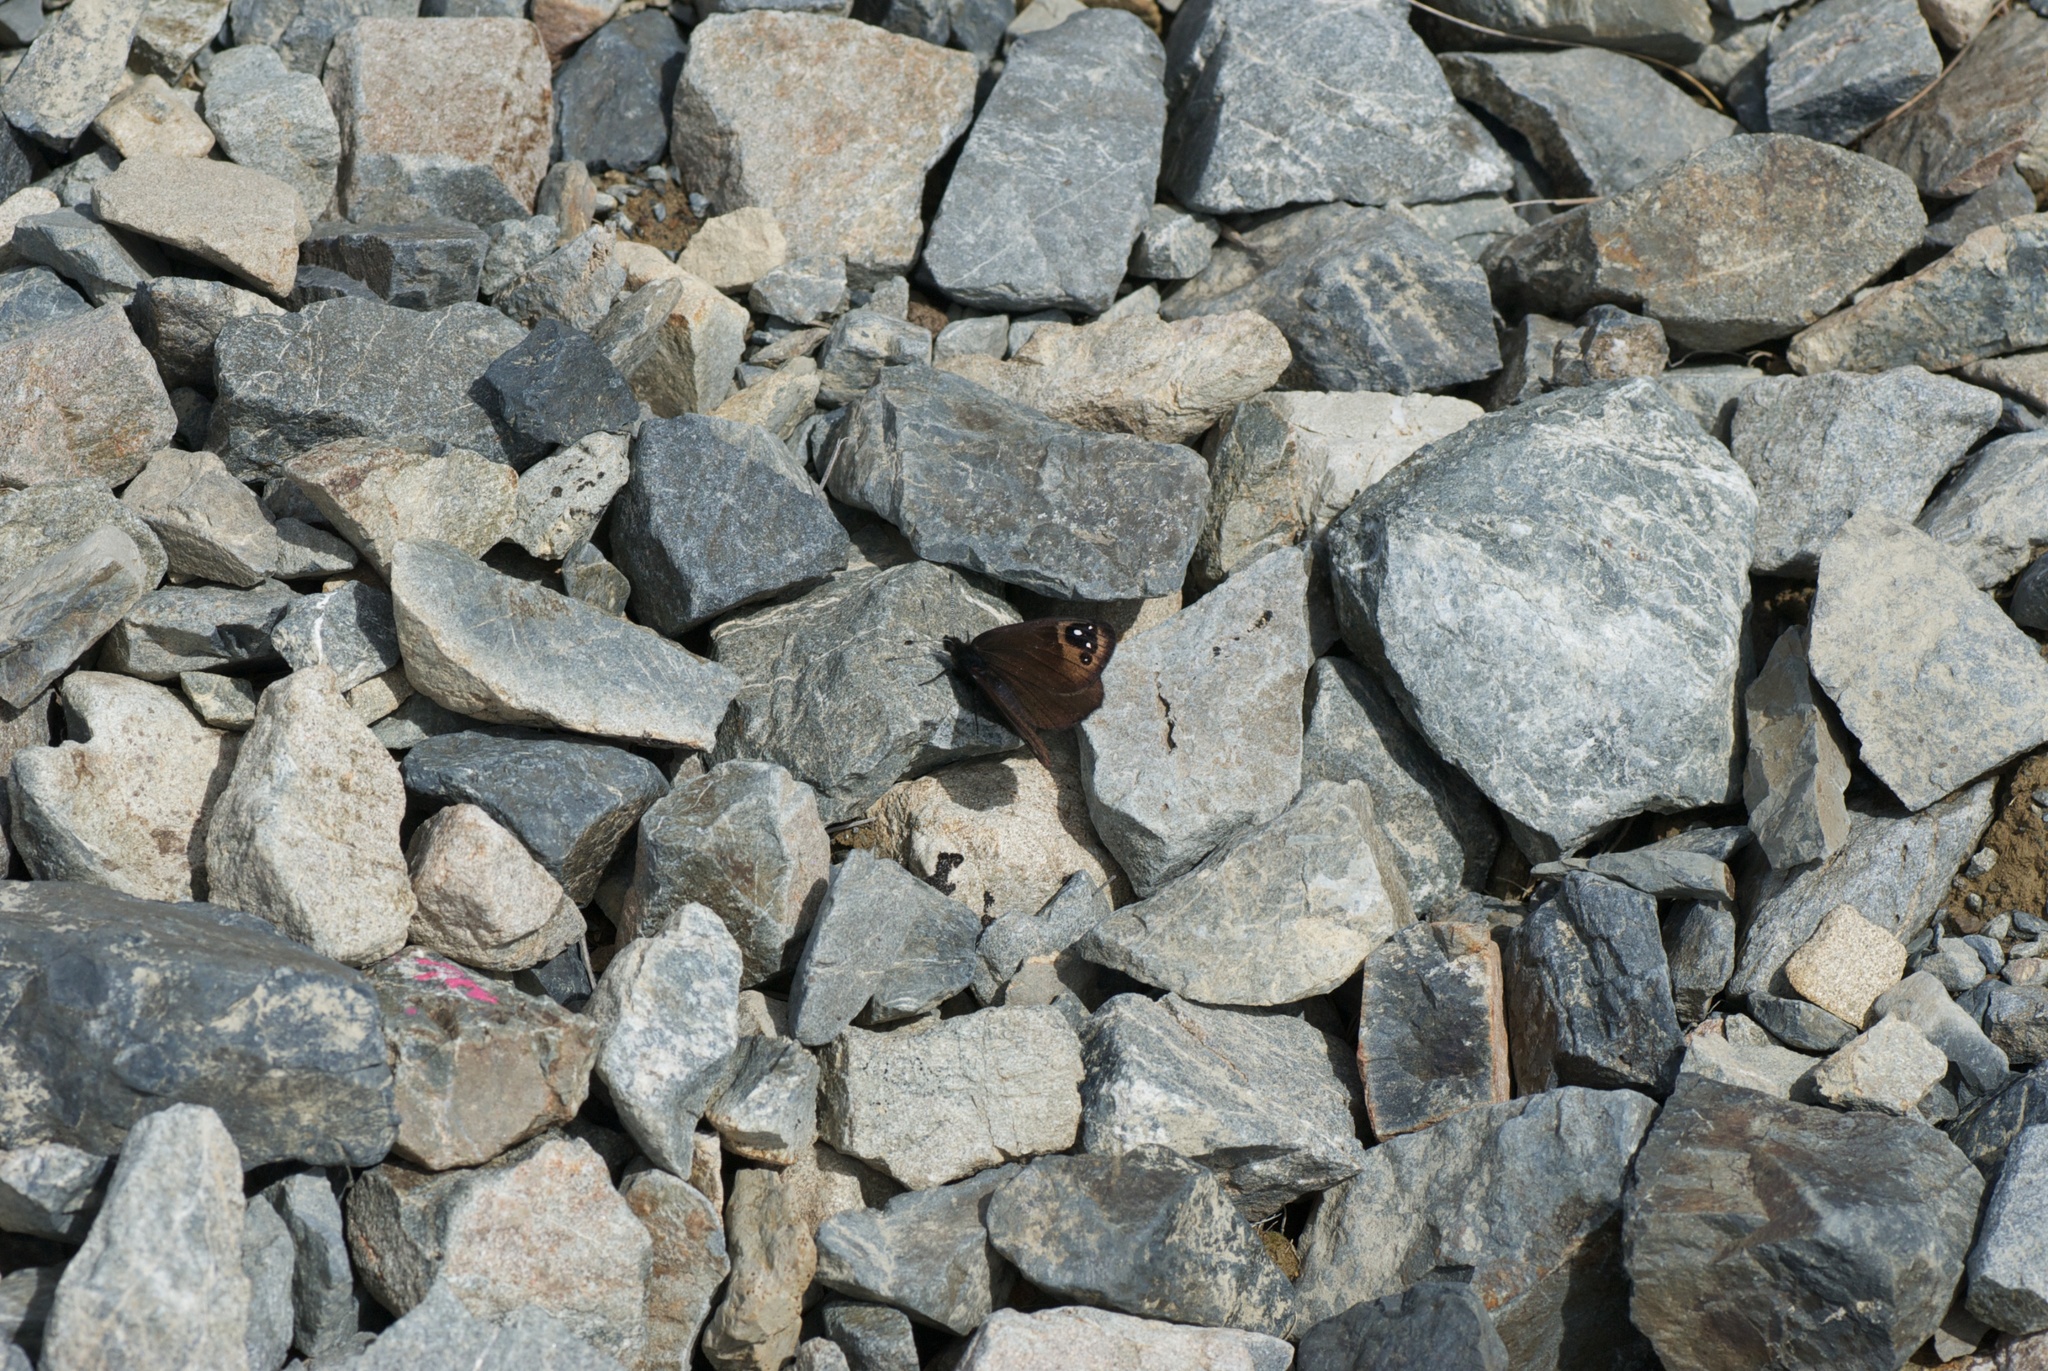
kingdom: Animalia
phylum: Arthropoda
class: Insecta
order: Lepidoptera
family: Nymphalidae
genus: Erebia
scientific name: Erebia Percnodaimon merula
